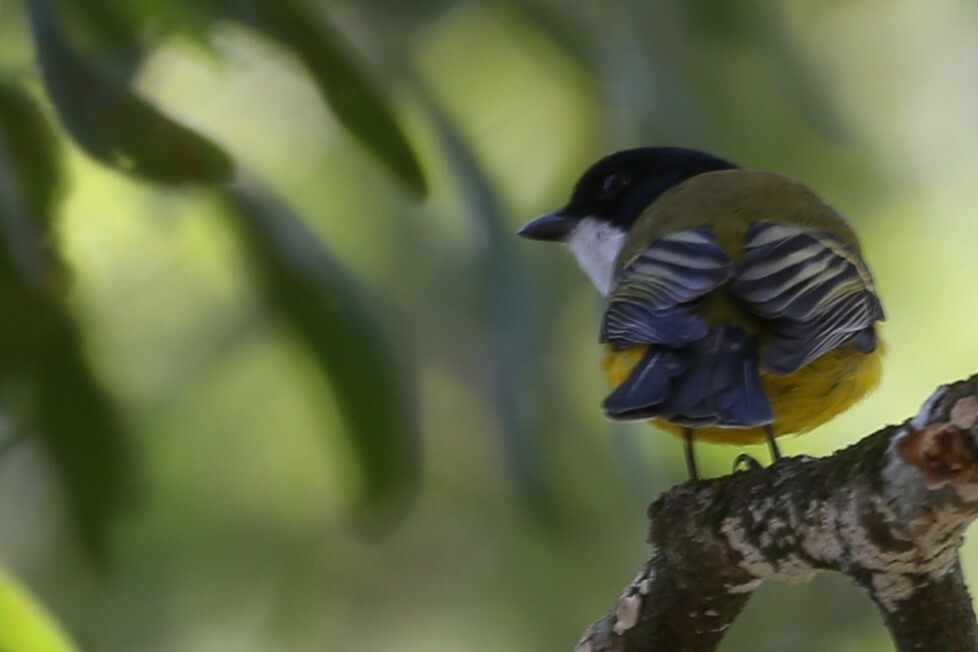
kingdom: Animalia
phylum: Chordata
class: Aves
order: Passeriformes
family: Pachycephalidae
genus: Pachycephala
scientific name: Pachycephala pectoralis
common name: Australian golden whistler
